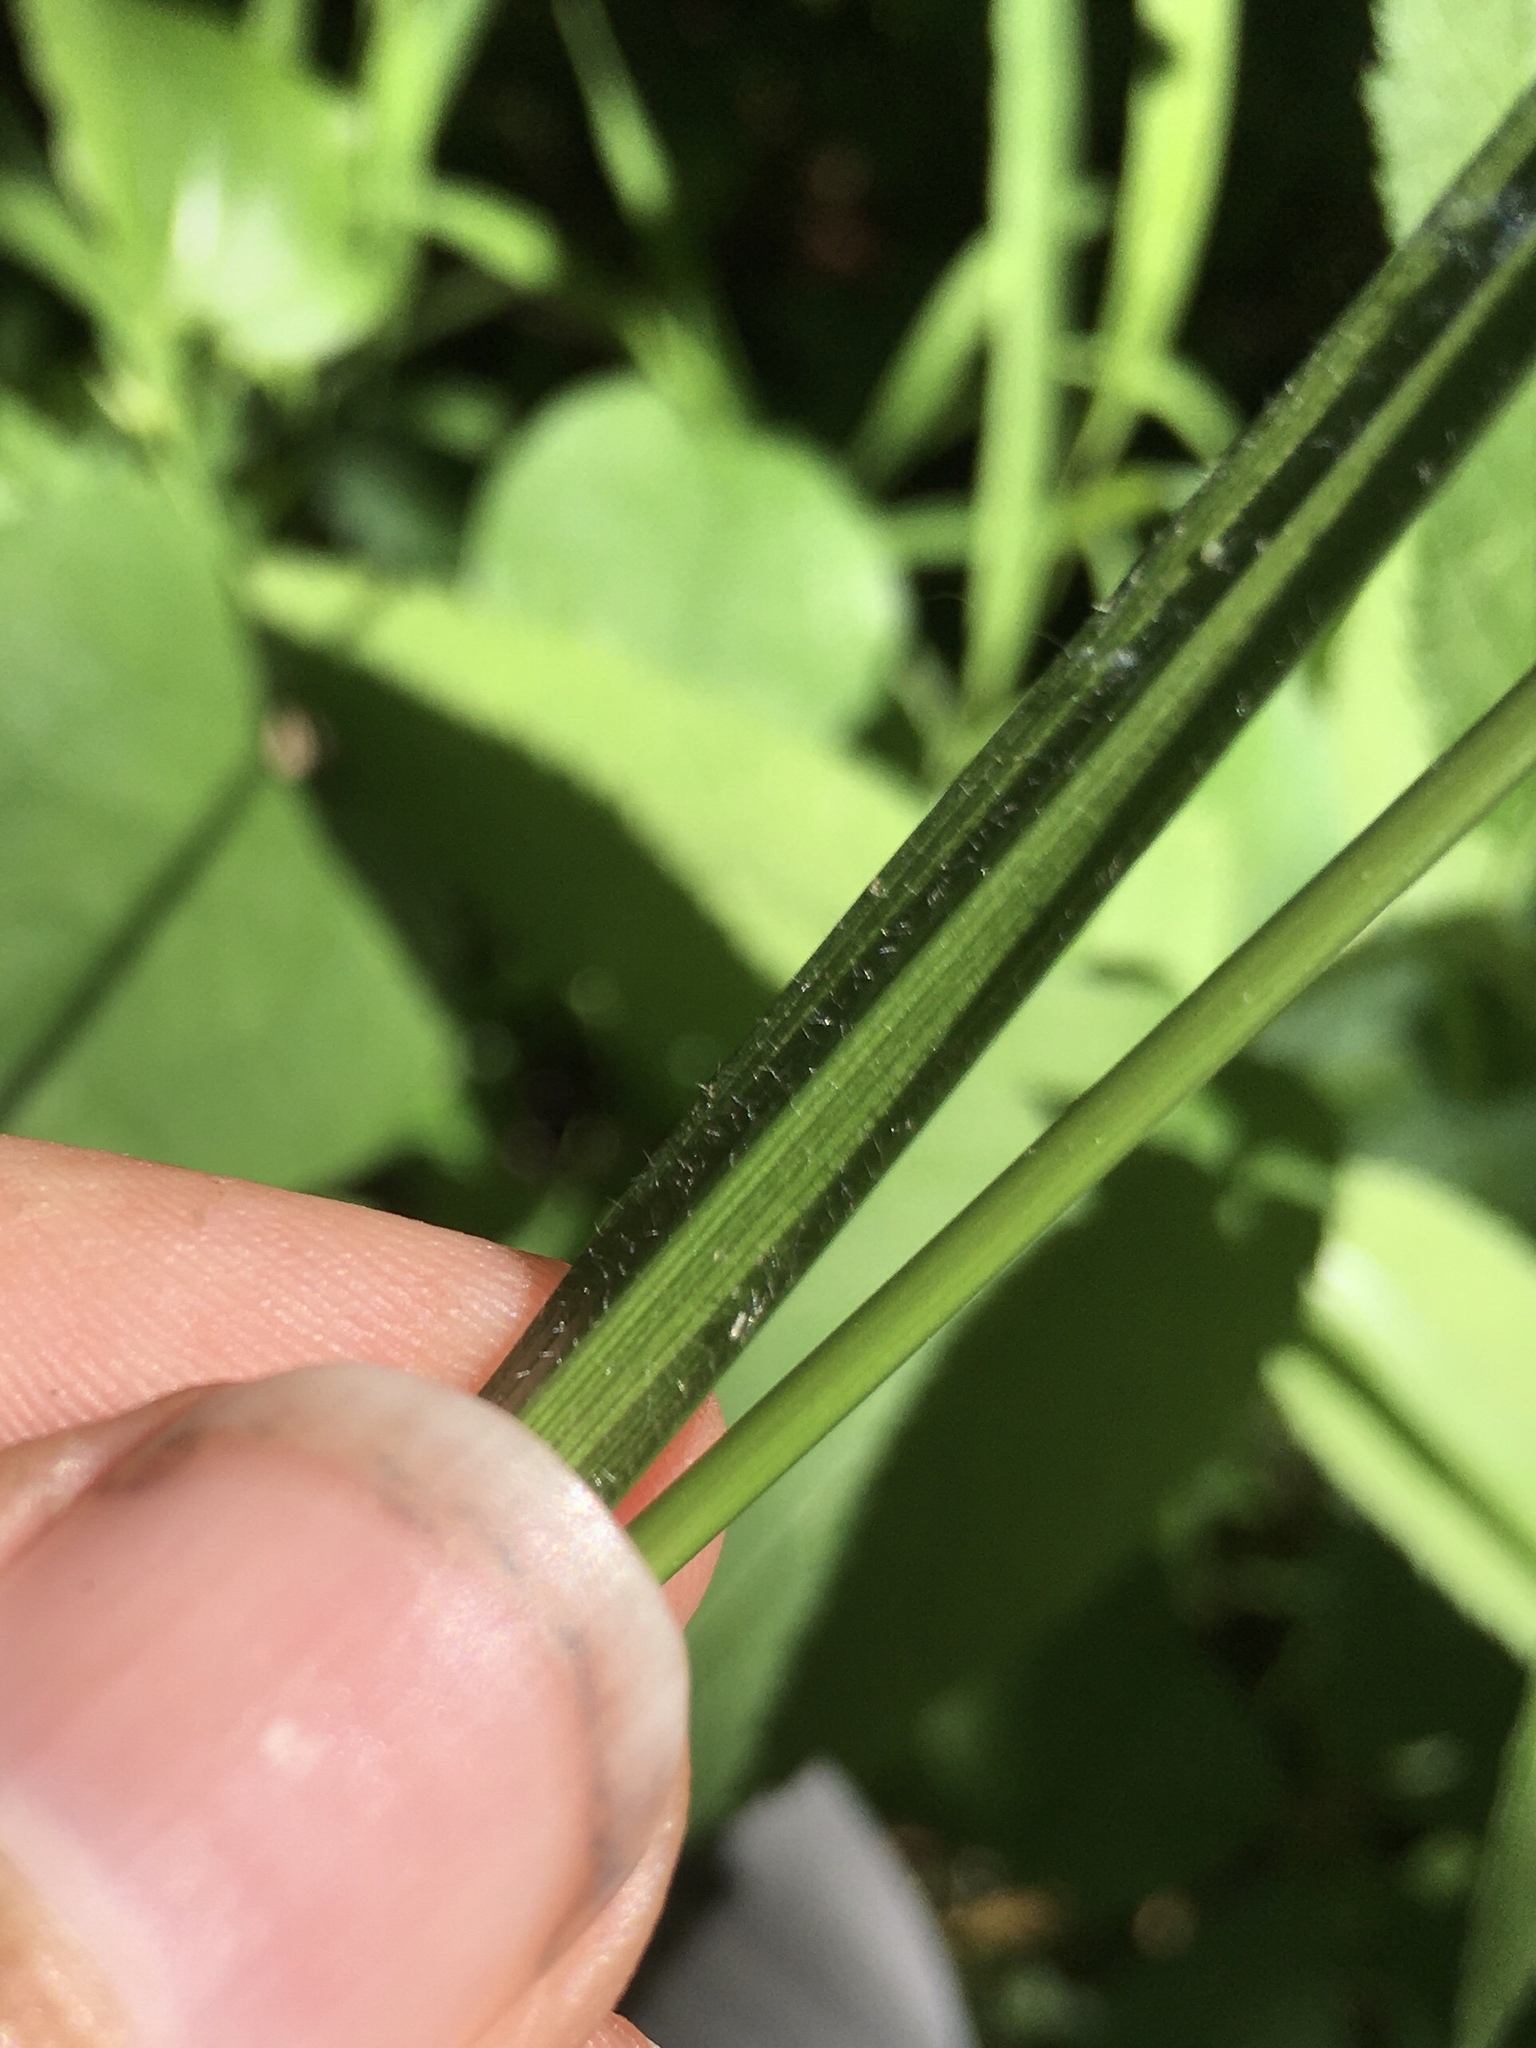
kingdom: Plantae
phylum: Tracheophyta
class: Liliopsida
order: Poales
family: Cyperaceae
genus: Carex
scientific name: Carex davisii
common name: Davis' sedge
